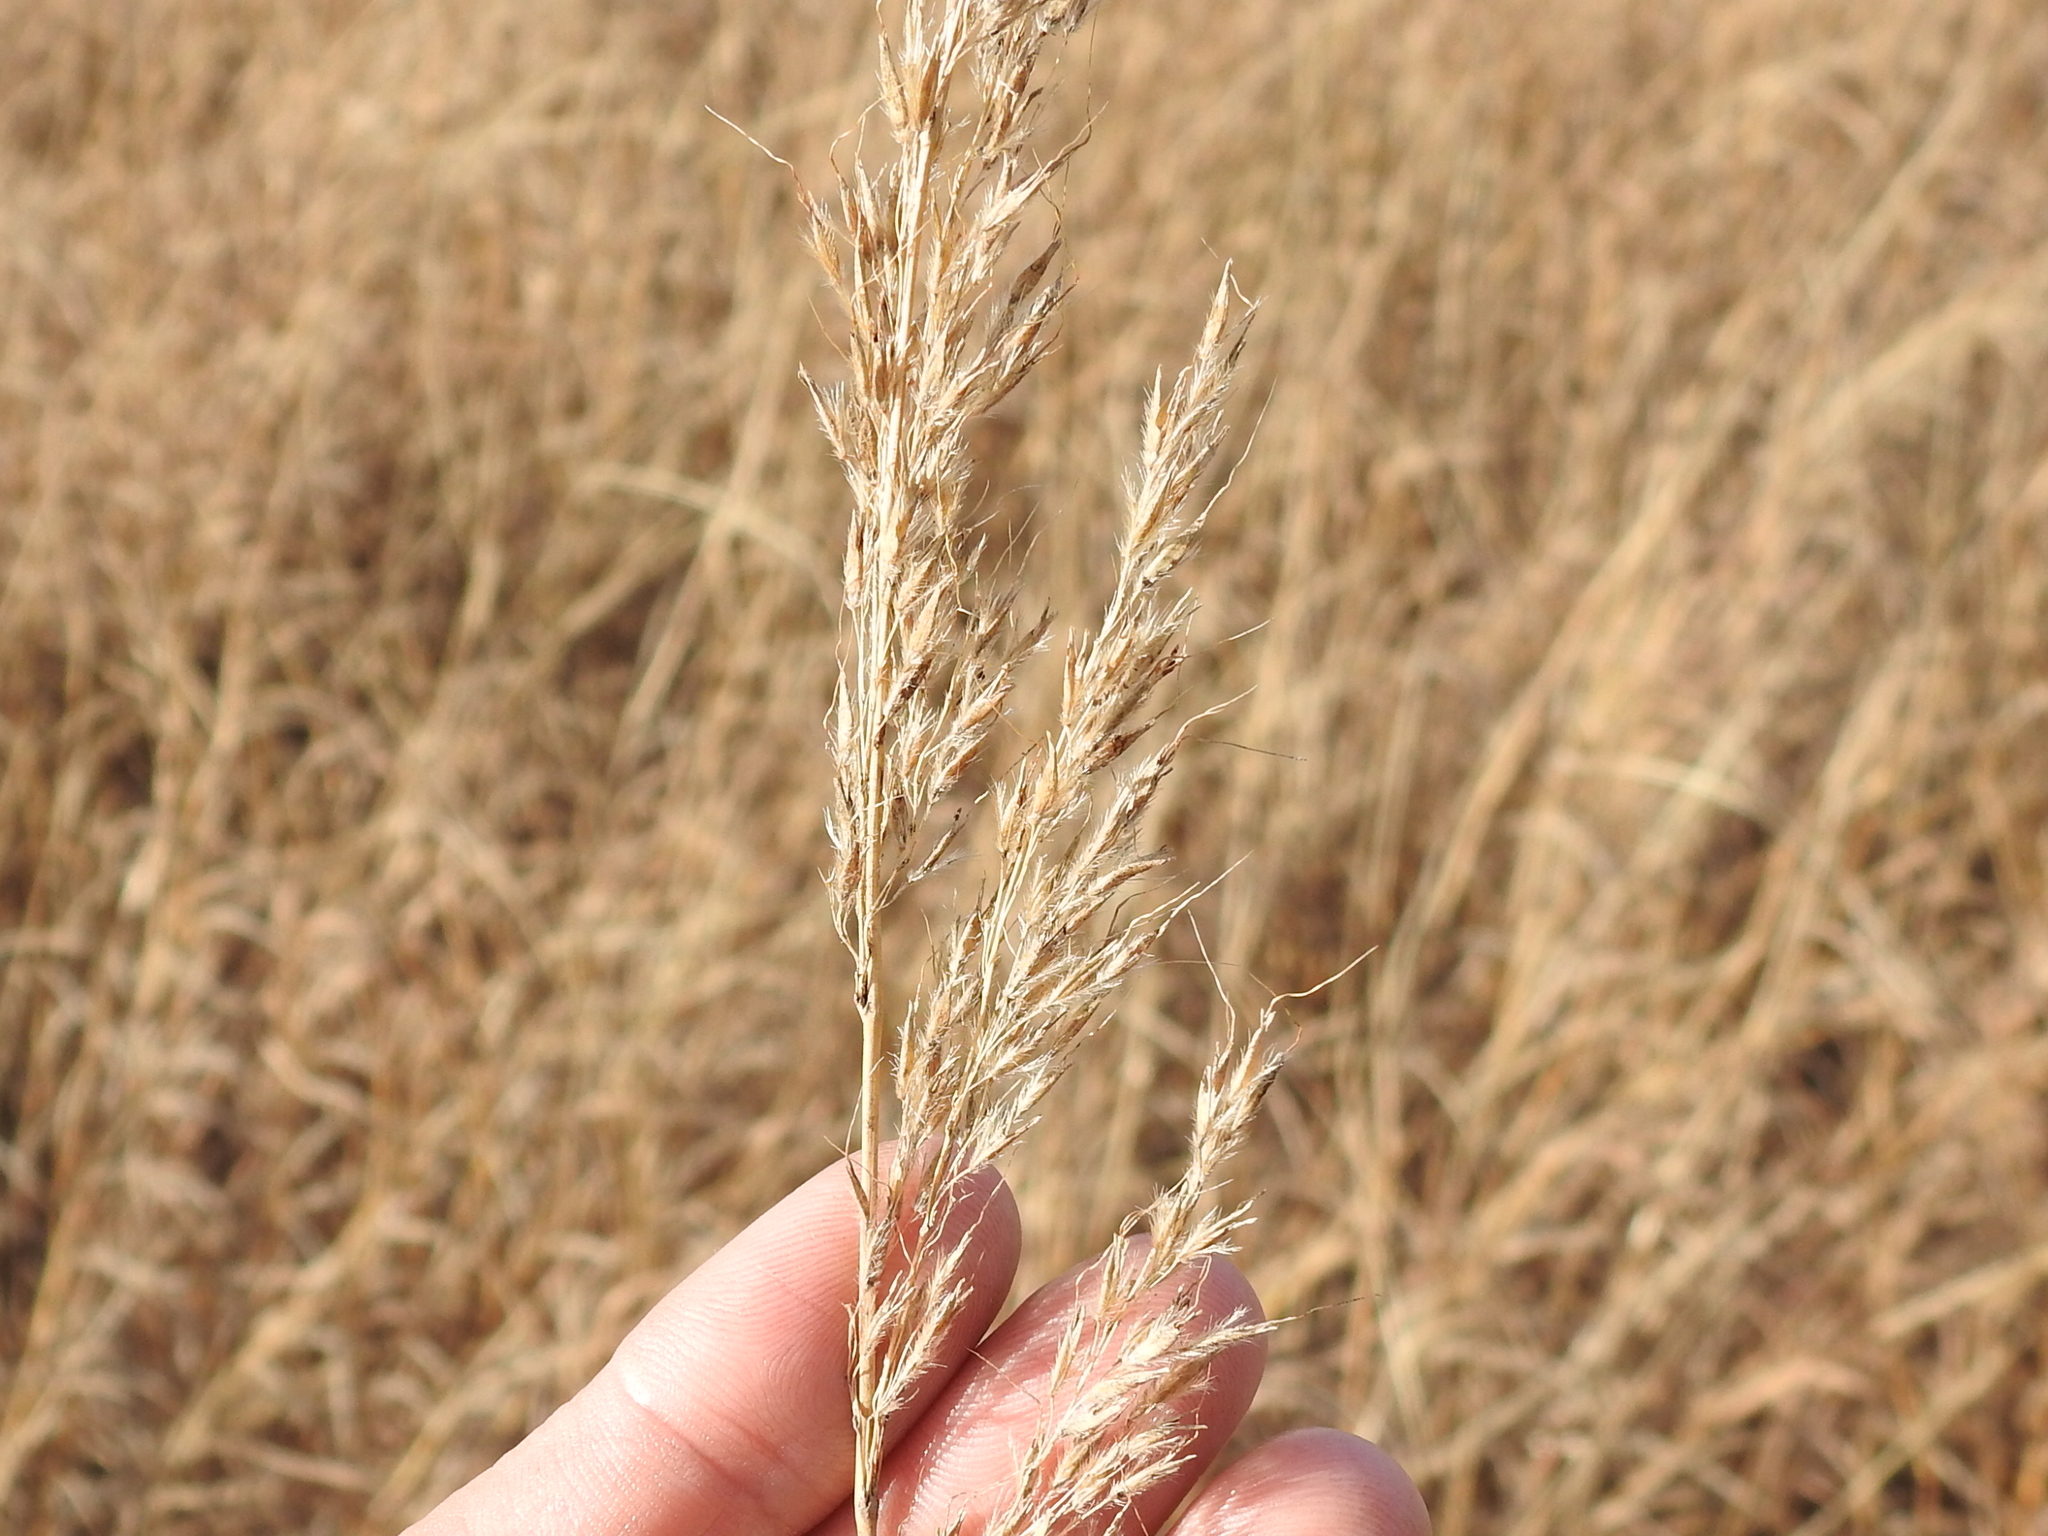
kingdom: Plantae
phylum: Tracheophyta
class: Liliopsida
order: Poales
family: Poaceae
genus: Sorghastrum
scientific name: Sorghastrum nutans
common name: Indian grass
